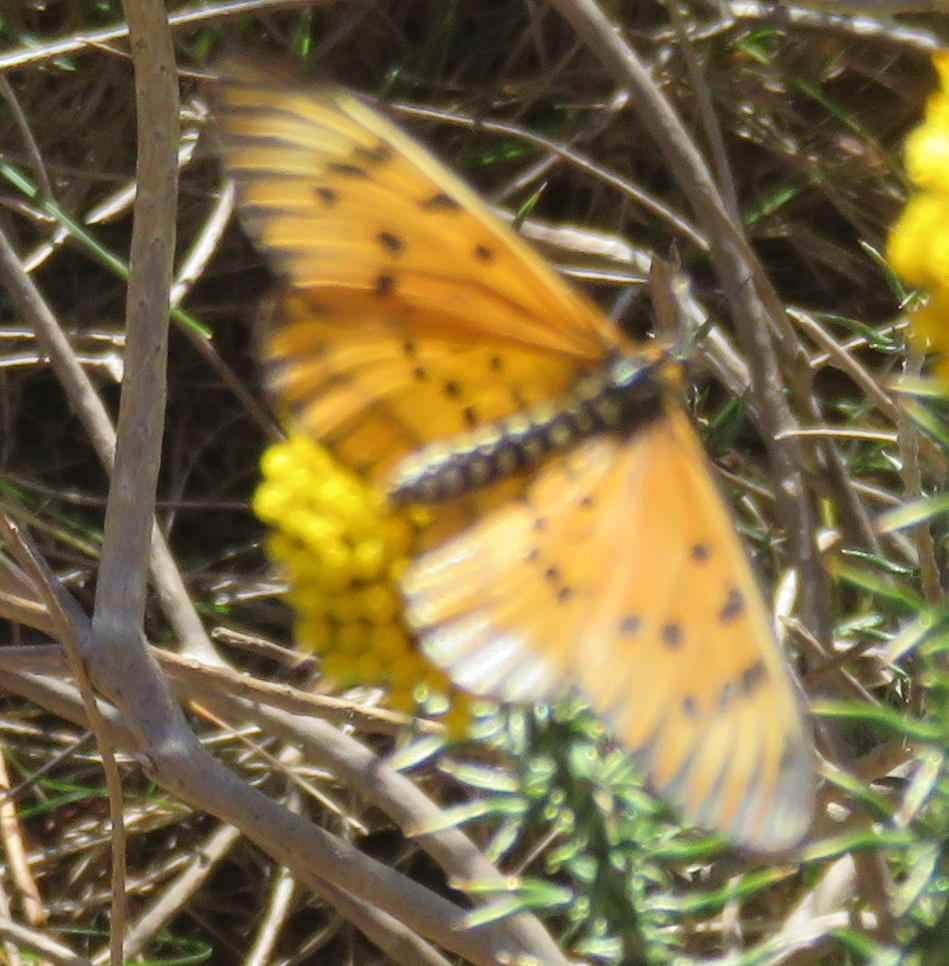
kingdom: Animalia
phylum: Arthropoda
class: Insecta
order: Lepidoptera
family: Nymphalidae
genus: Acraea
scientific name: Acraea rahira
